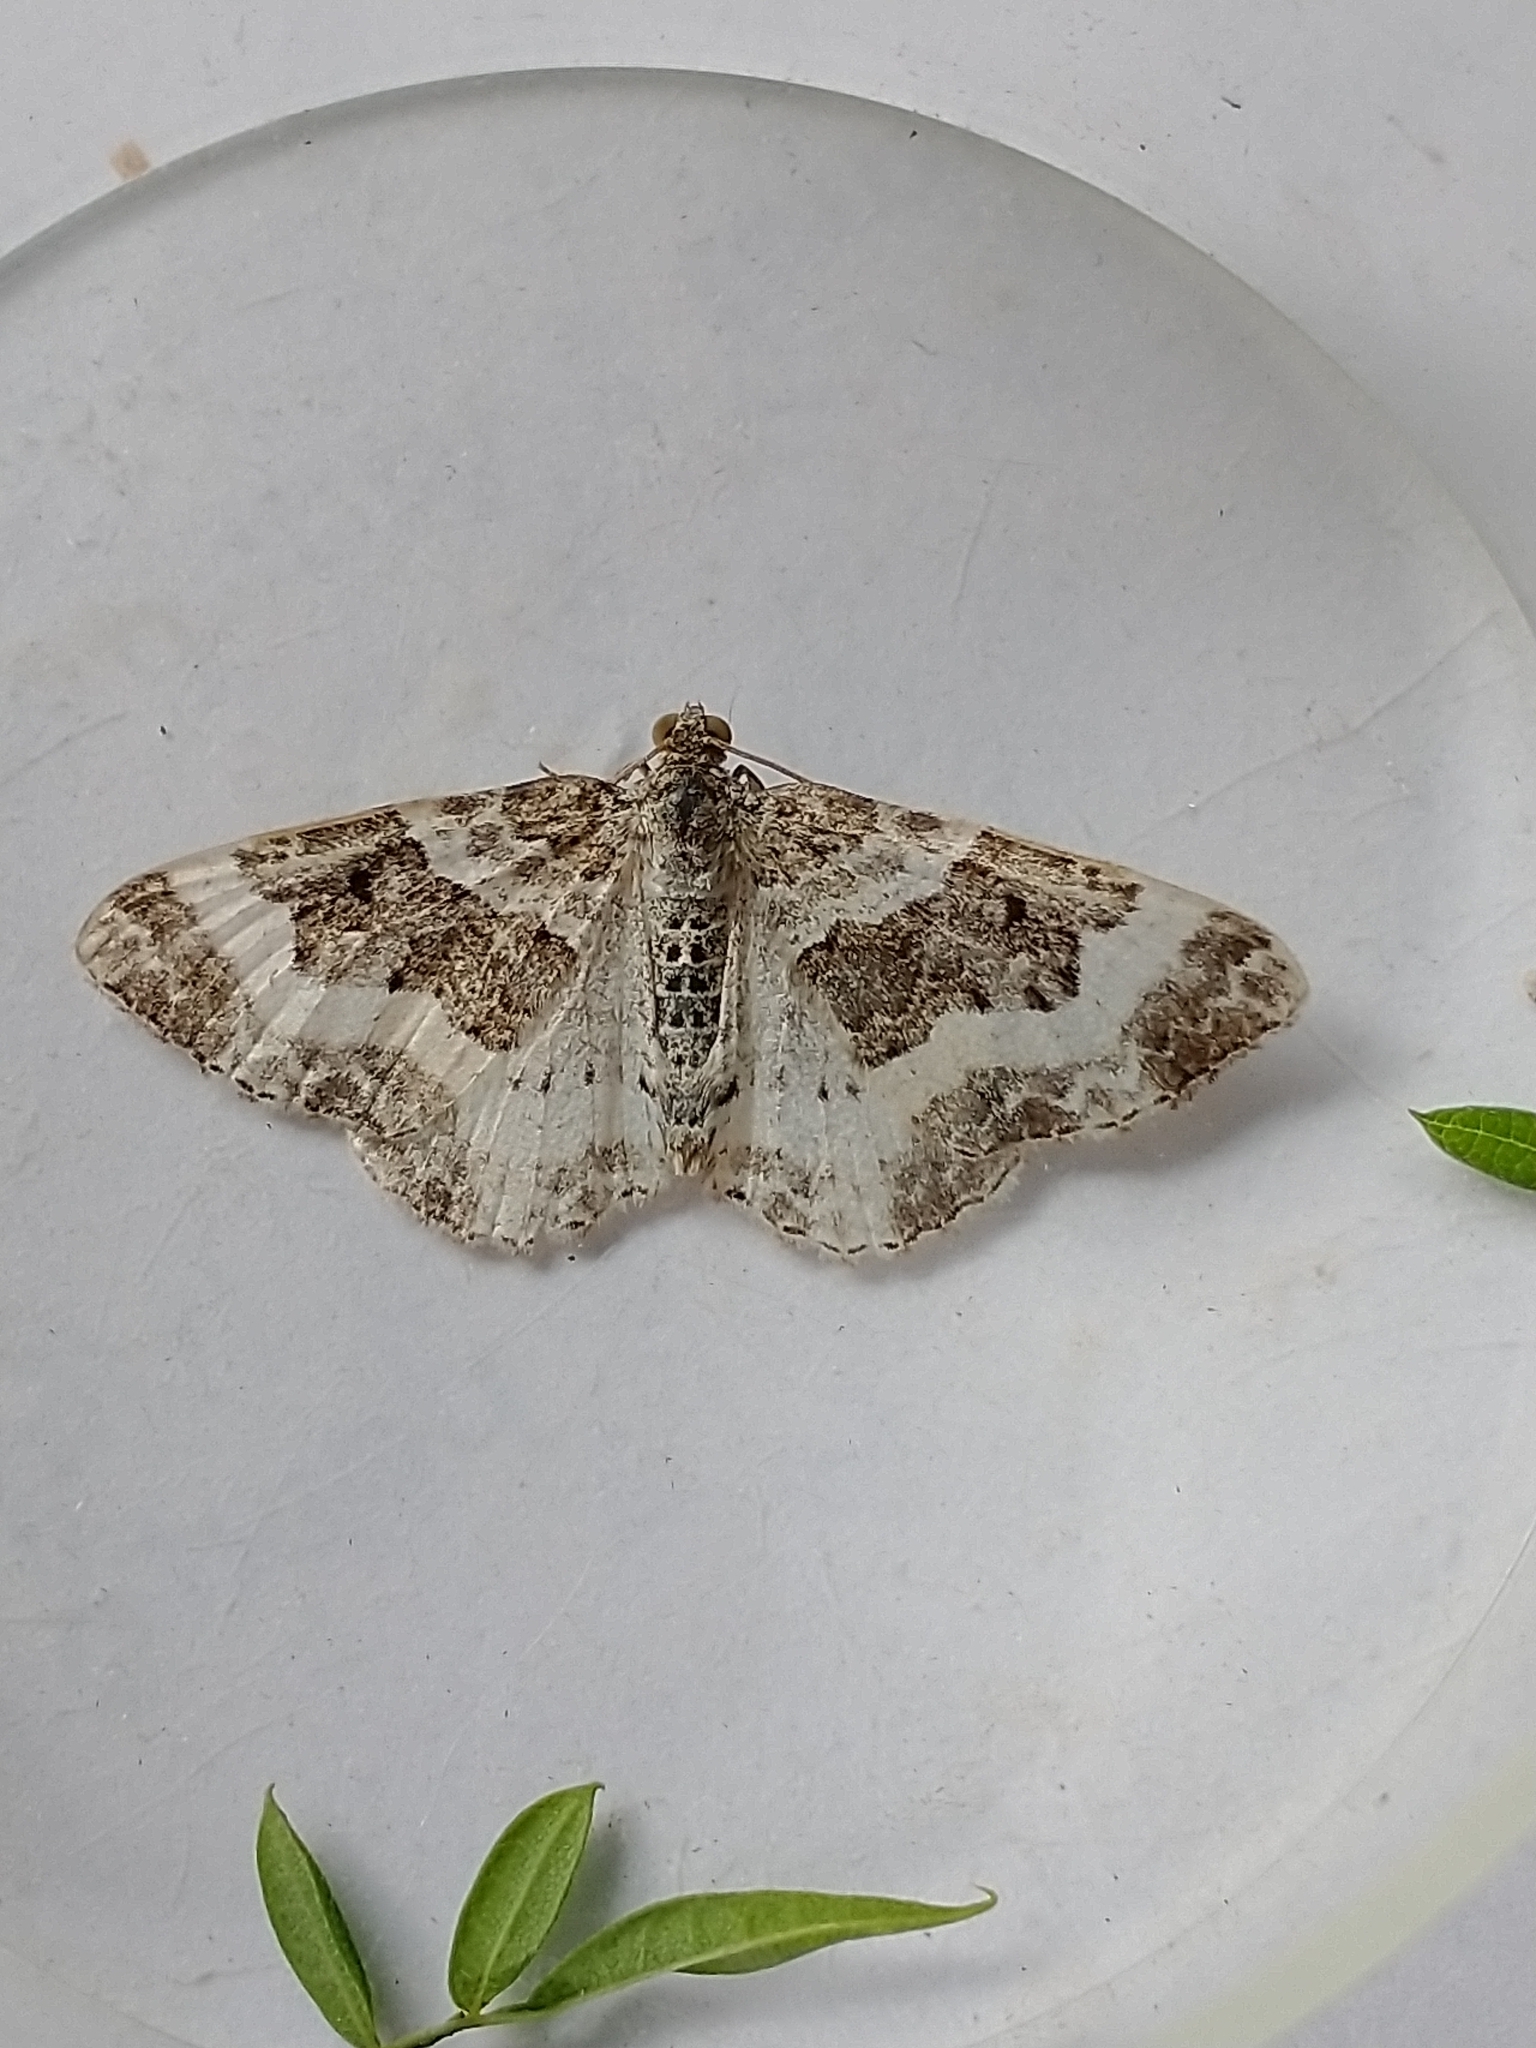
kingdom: Animalia
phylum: Arthropoda
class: Insecta
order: Lepidoptera
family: Geometridae
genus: Epirrhoe
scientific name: Epirrhoe rivata
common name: Wood carpet
